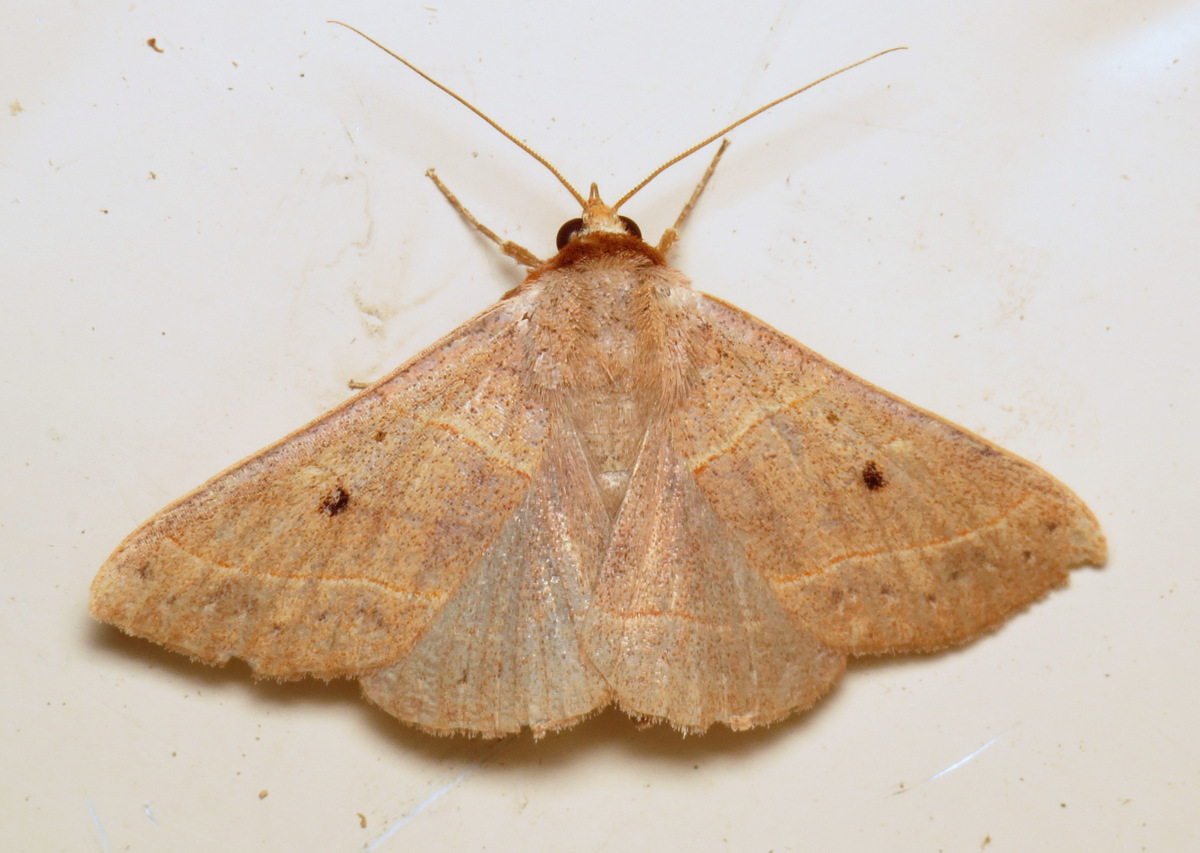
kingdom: Animalia
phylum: Arthropoda
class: Insecta
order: Lepidoptera
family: Erebidae
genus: Panopoda
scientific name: Panopoda rufimargo
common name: Red-lined panopoda moth
